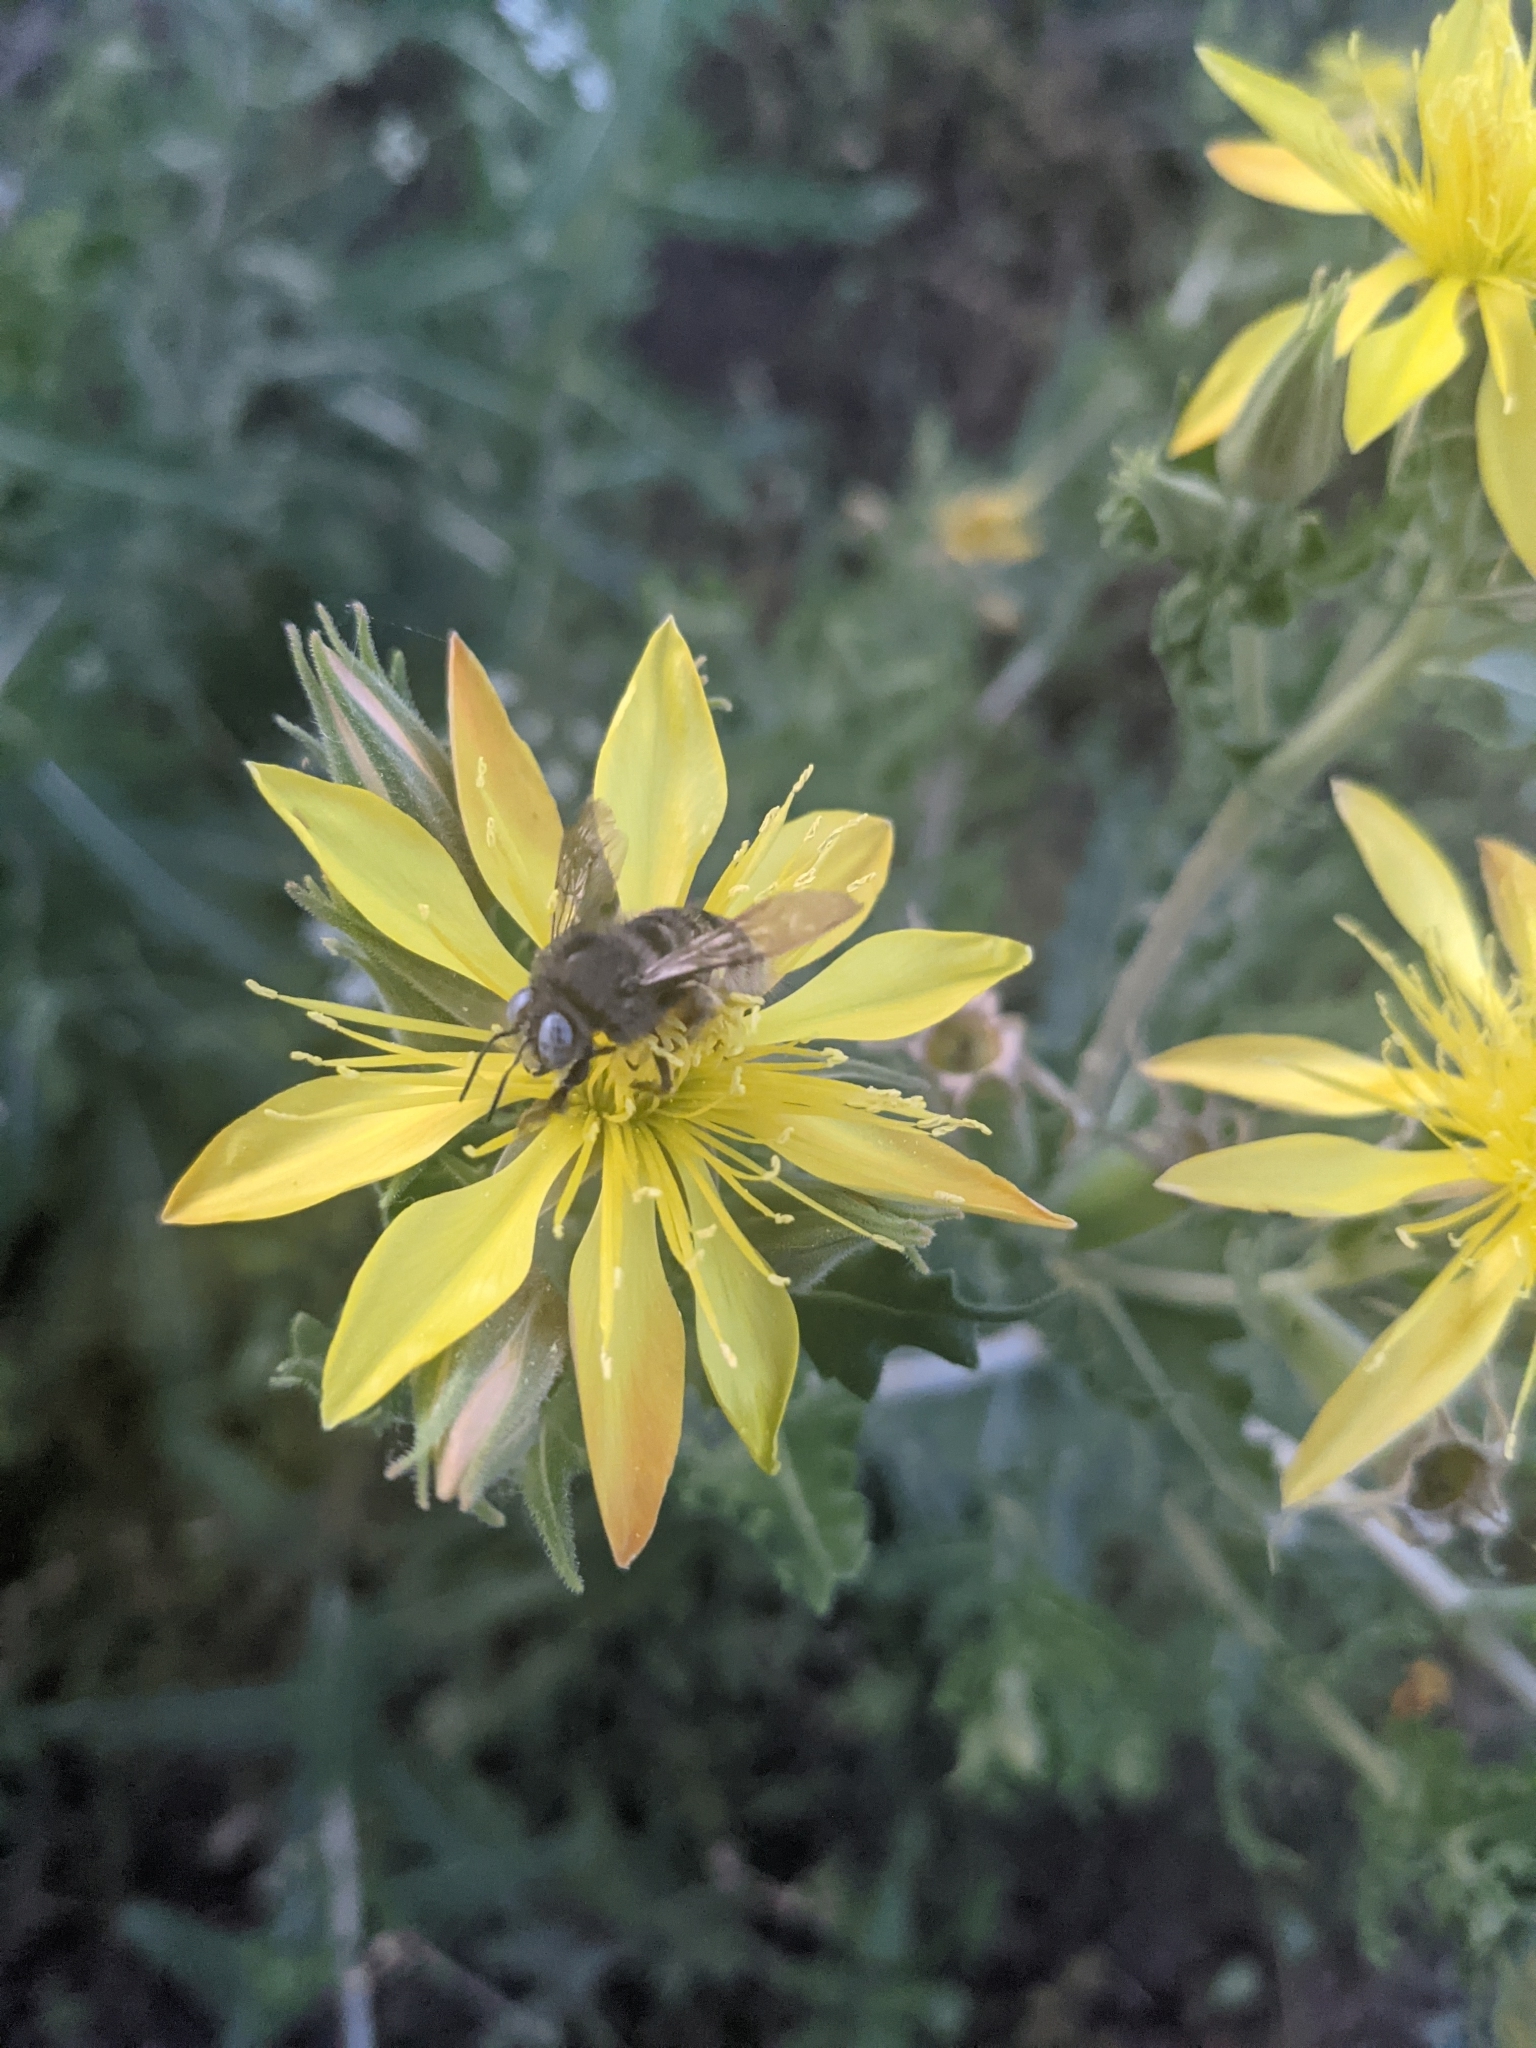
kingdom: Animalia
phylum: Arthropoda
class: Insecta
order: Hymenoptera
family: Apidae
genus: Xylocopa
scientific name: Xylocopa tabaniformis
